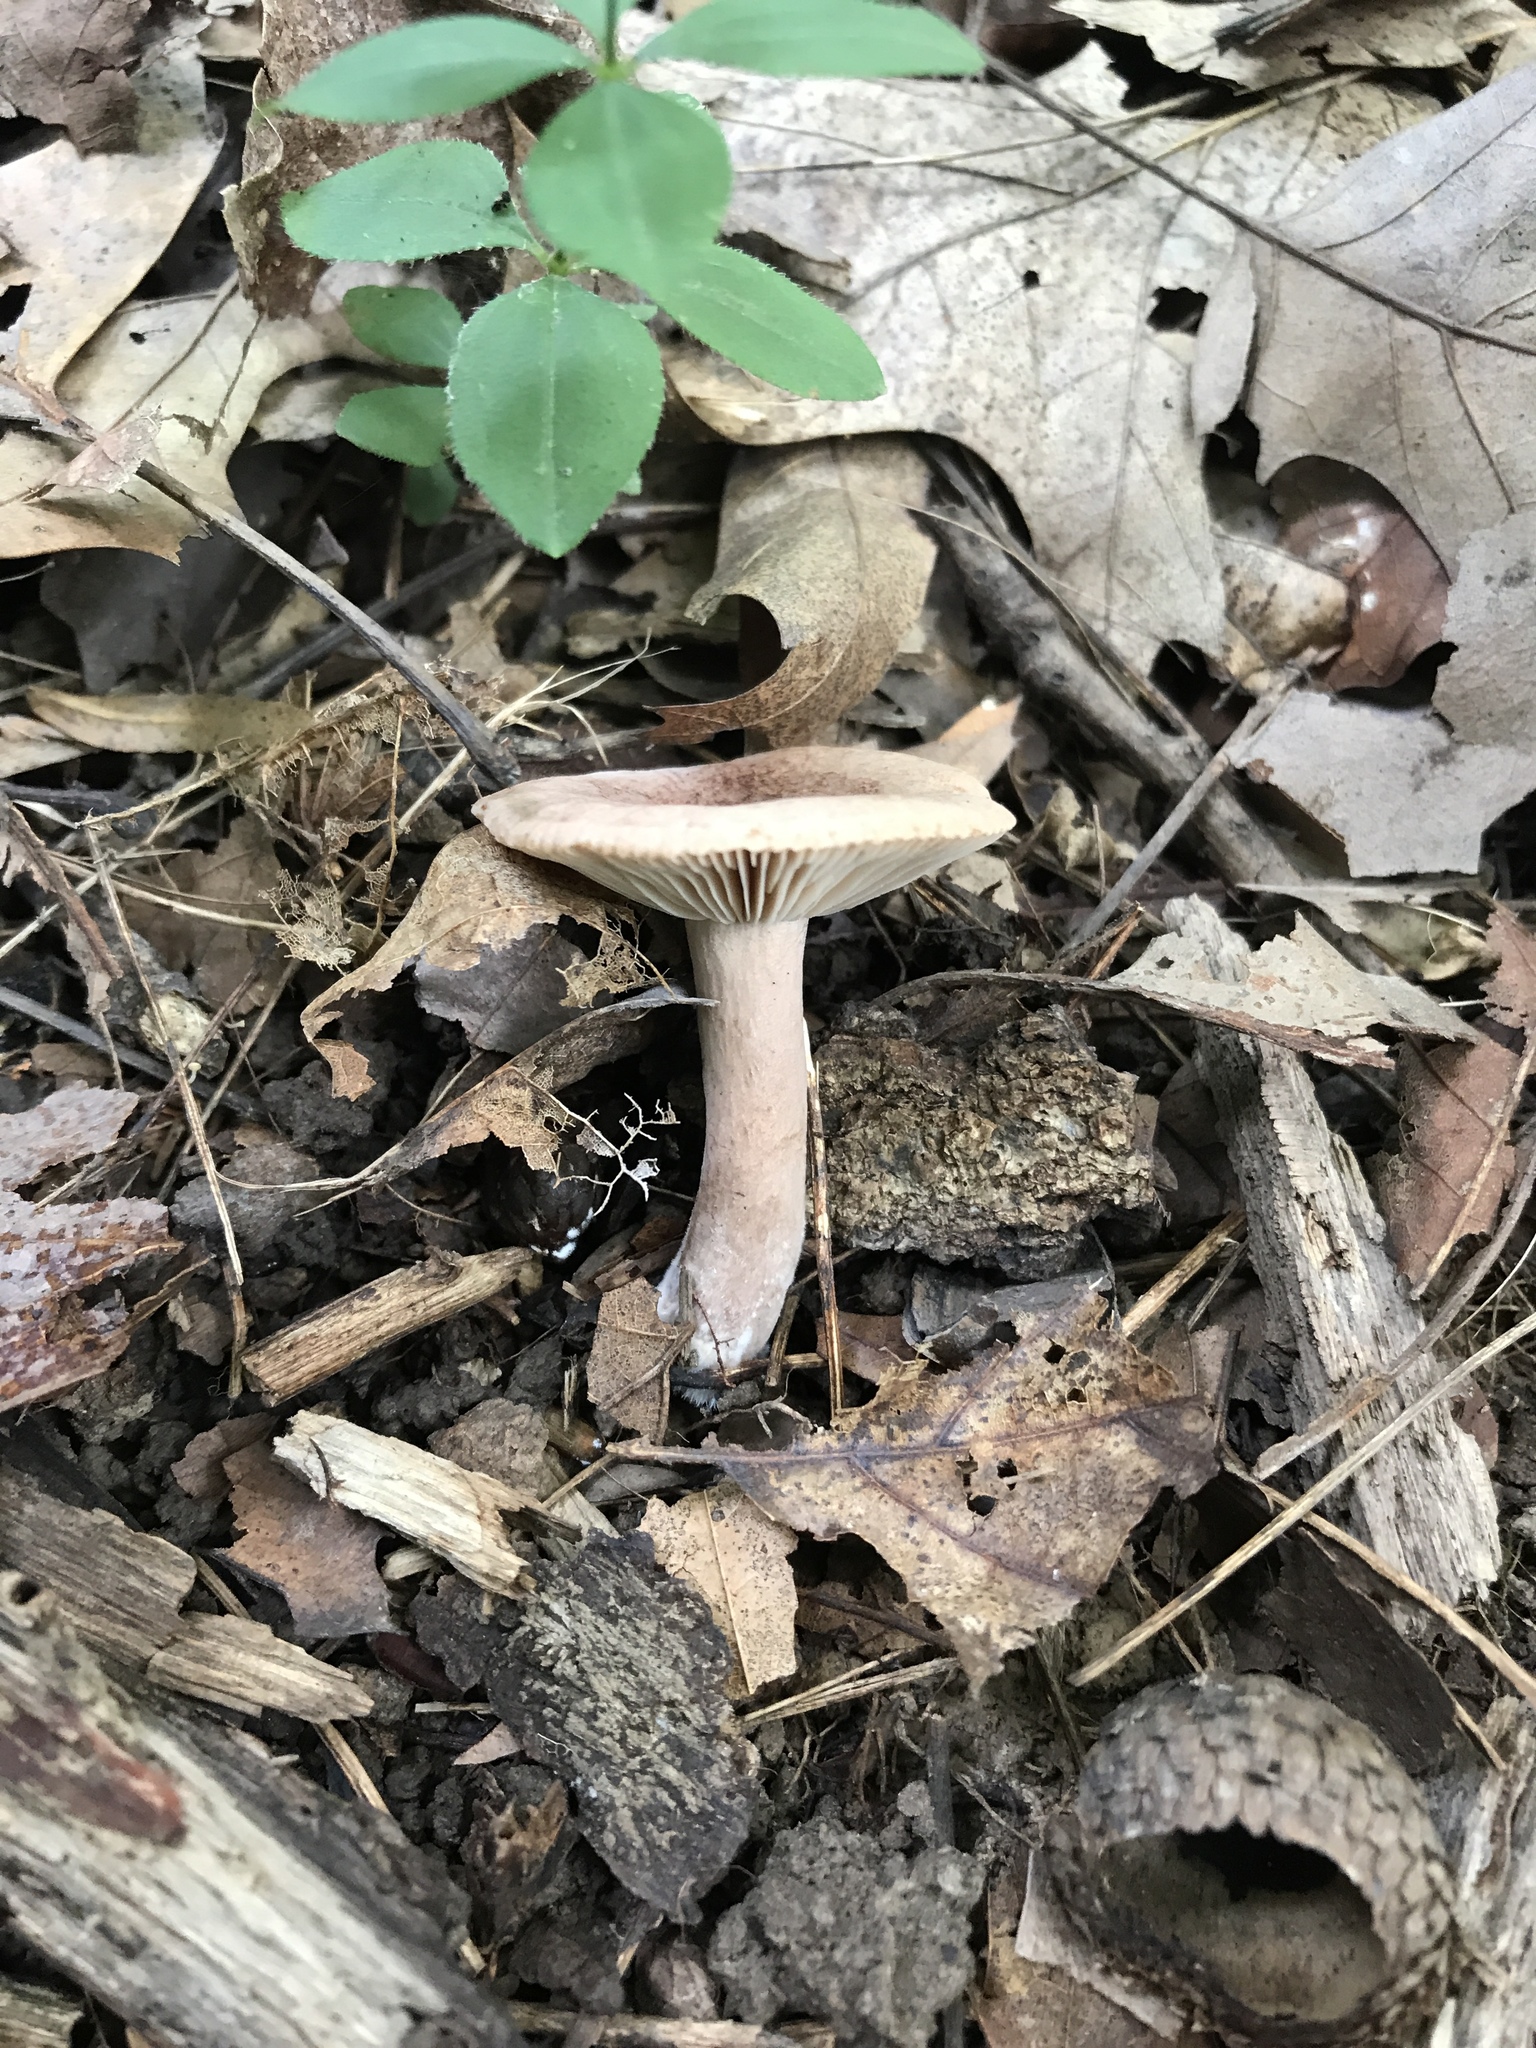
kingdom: Fungi
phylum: Basidiomycota
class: Agaricomycetes
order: Russulales
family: Russulaceae
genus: Lactarius
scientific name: Lactarius quietus
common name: Oak milk-cap
